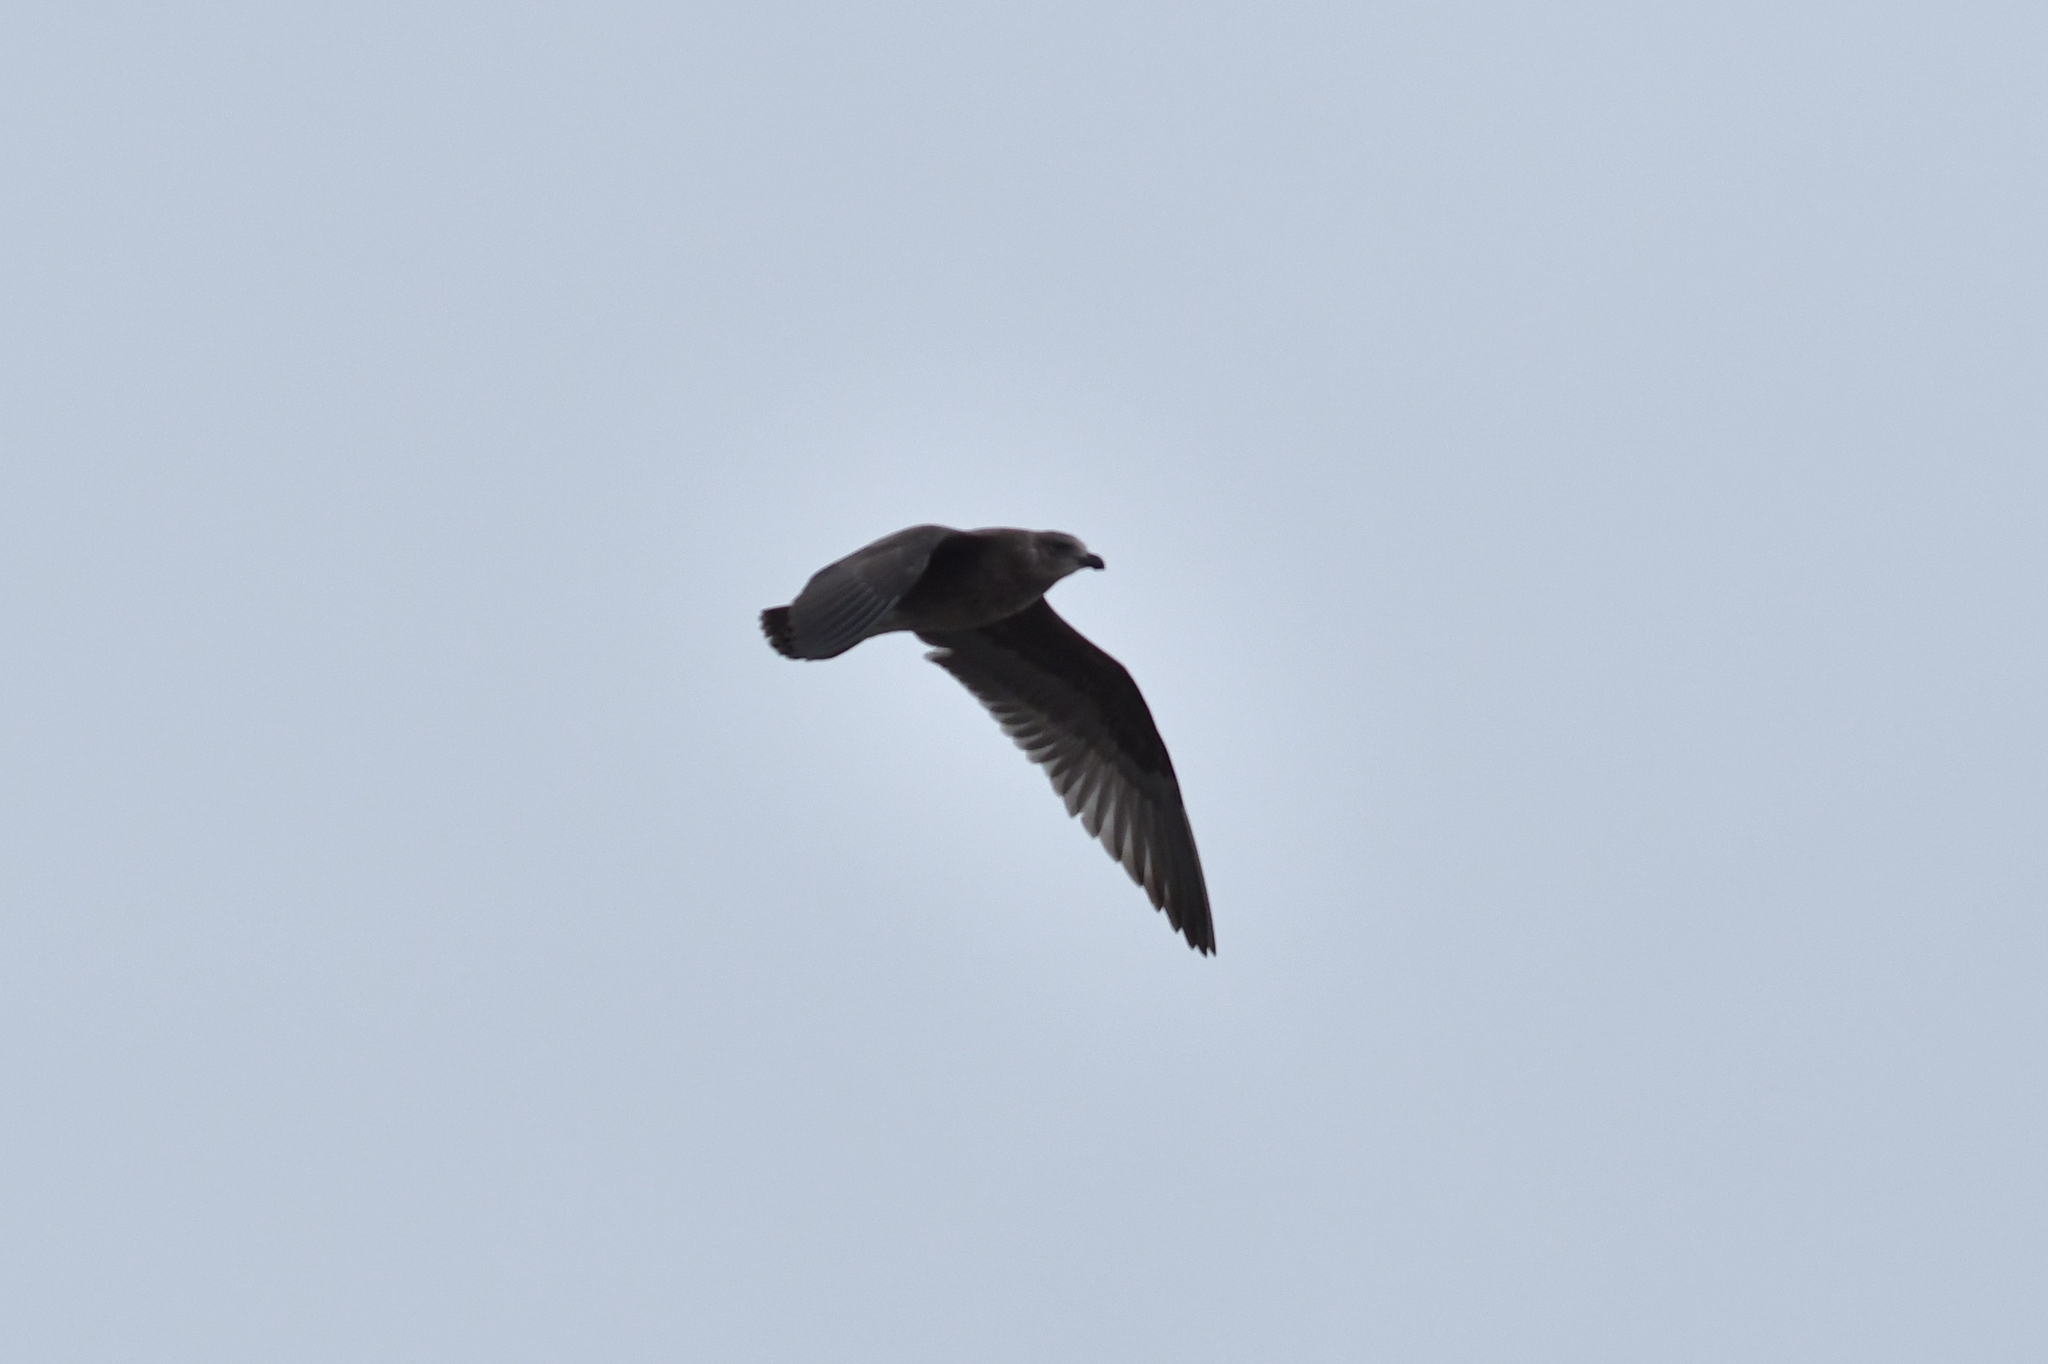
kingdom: Animalia
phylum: Chordata
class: Aves
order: Charadriiformes
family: Laridae
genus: Larus
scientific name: Larus dominicanus
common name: Kelp gull
